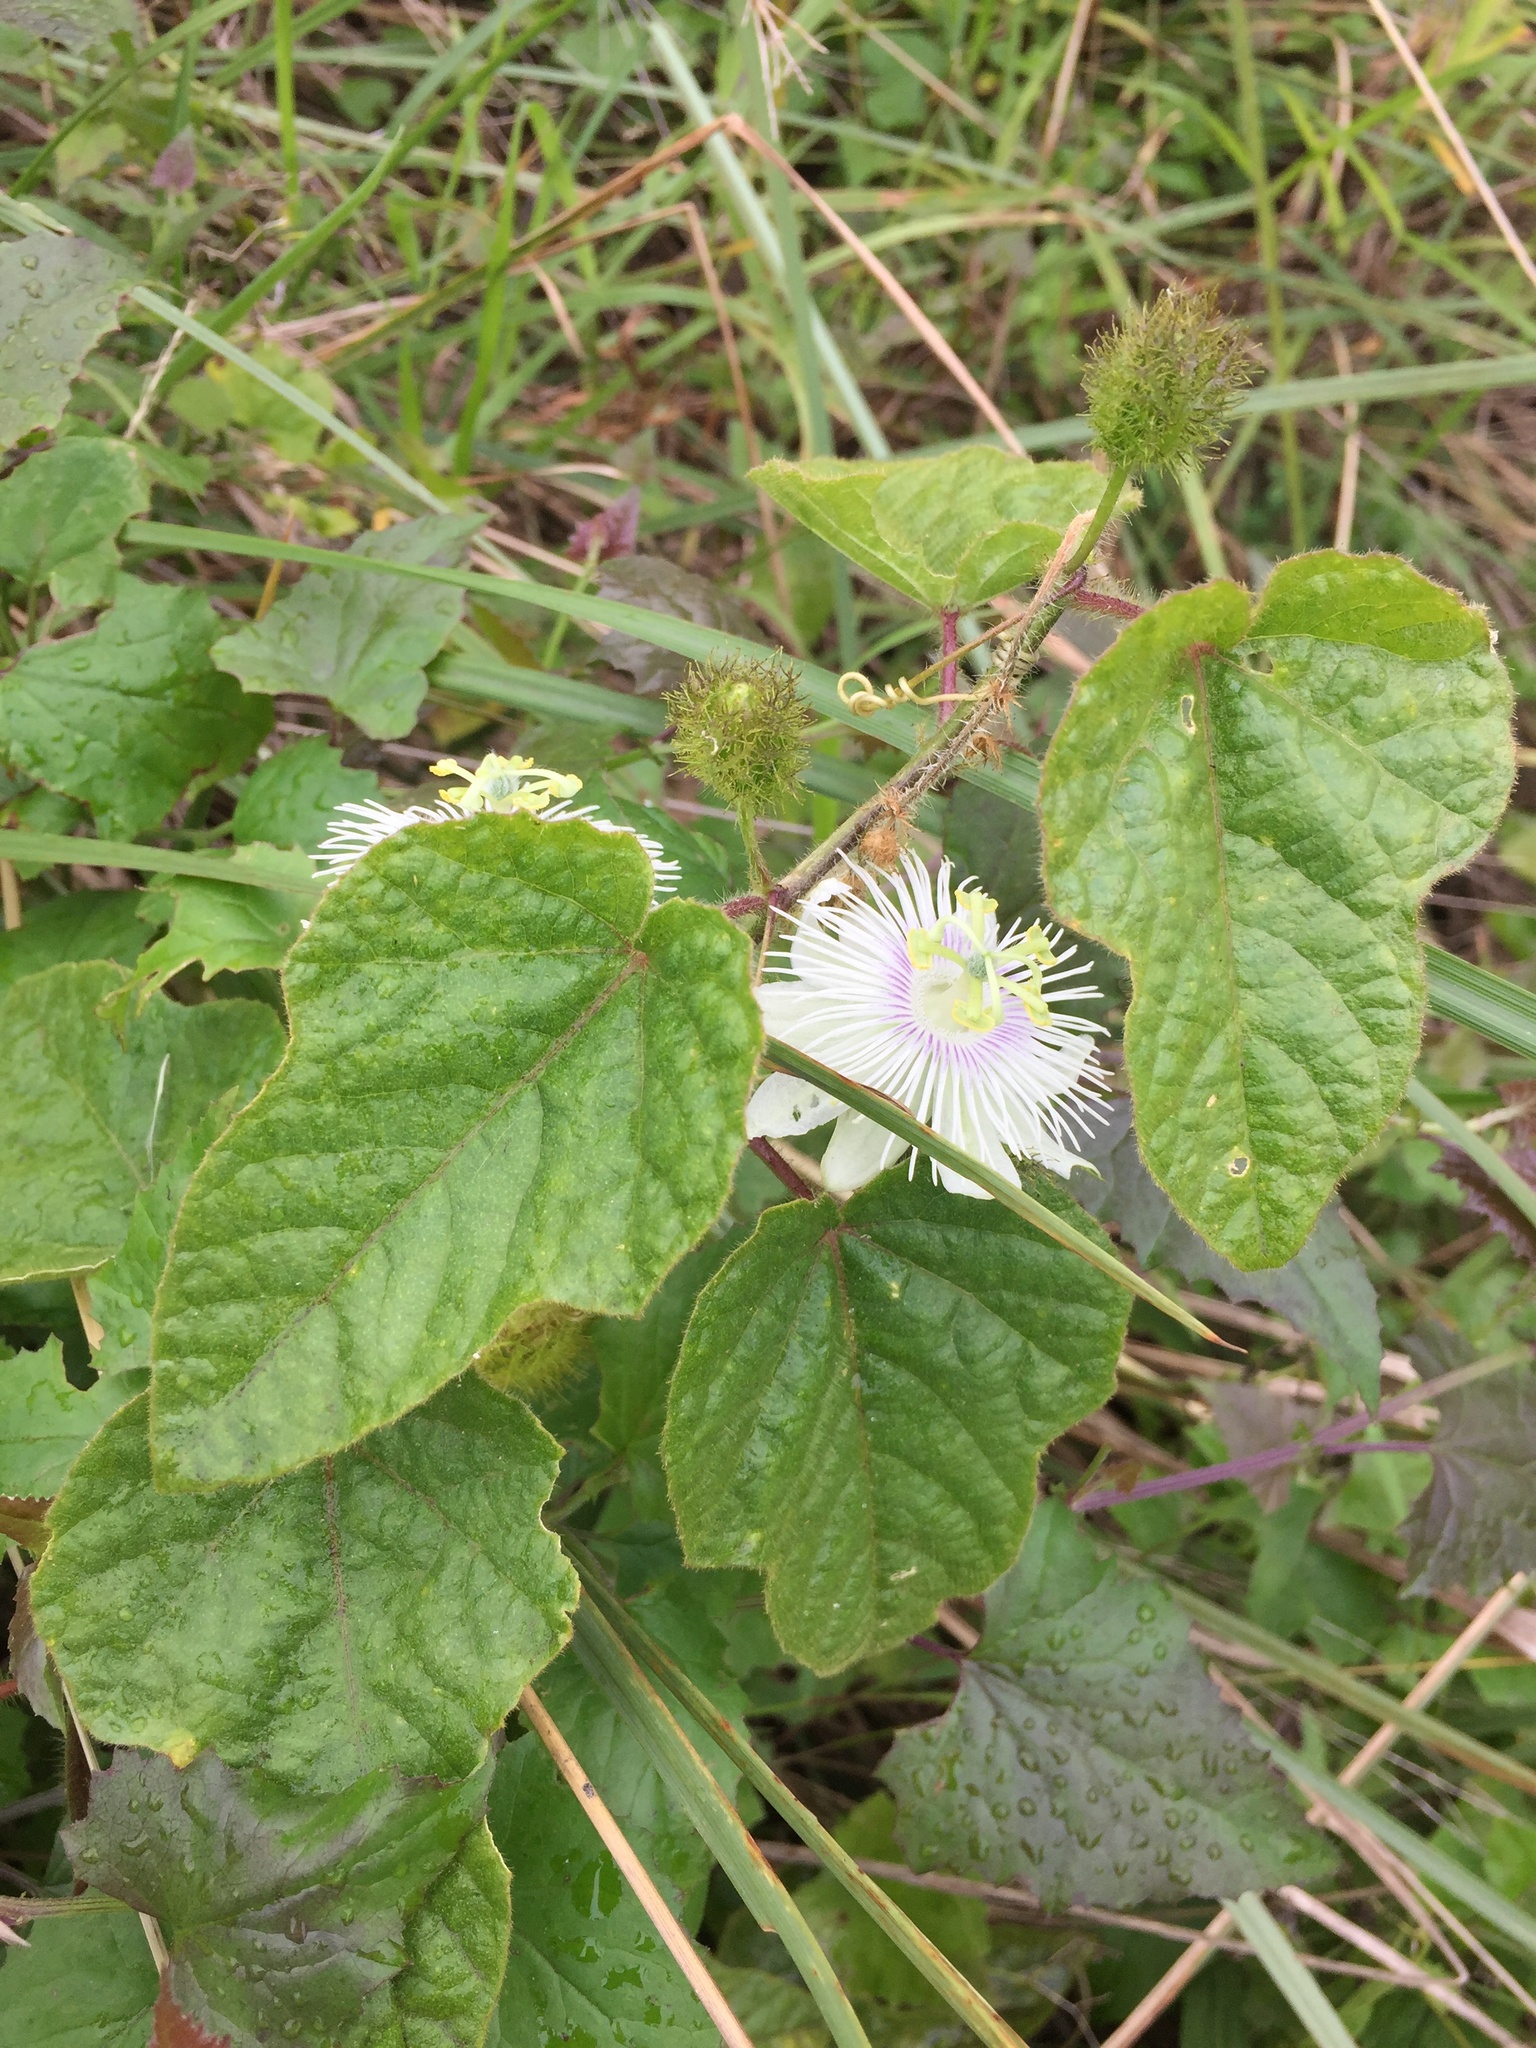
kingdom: Plantae
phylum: Tracheophyta
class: Magnoliopsida
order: Malpighiales
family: Passifloraceae
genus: Passiflora
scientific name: Passiflora foetida
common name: Fetid passionflower
